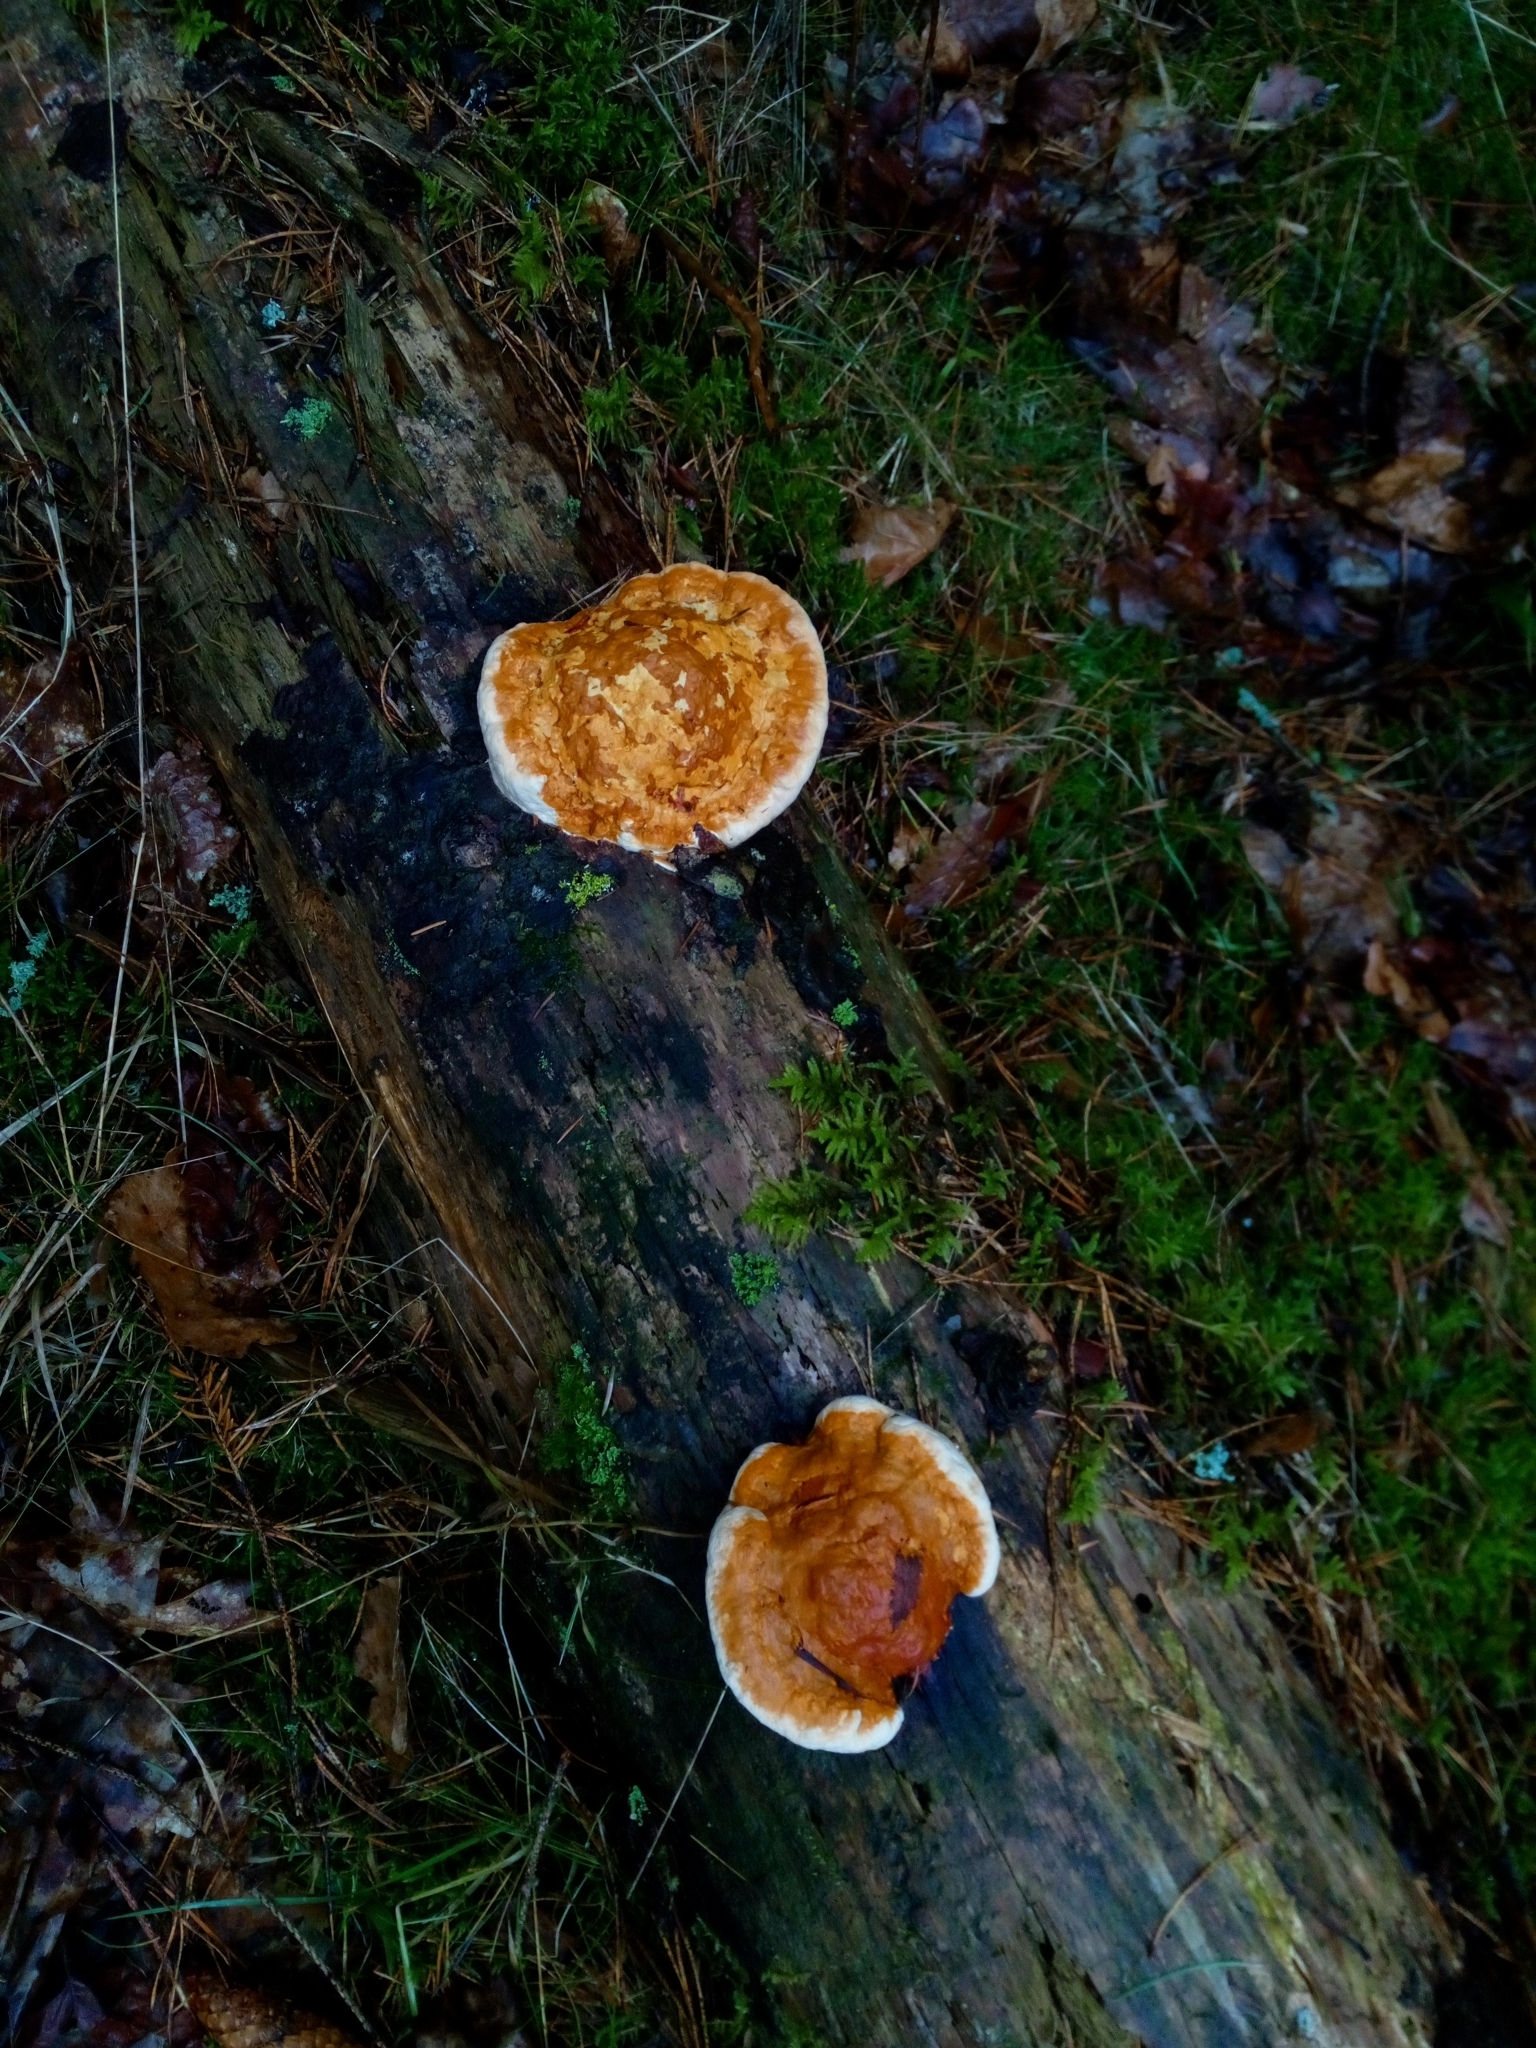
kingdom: Fungi
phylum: Basidiomycota
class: Agaricomycetes
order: Polyporales
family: Fomitopsidaceae
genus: Fomitopsis
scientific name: Fomitopsis pinicola
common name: Red-belted bracket
